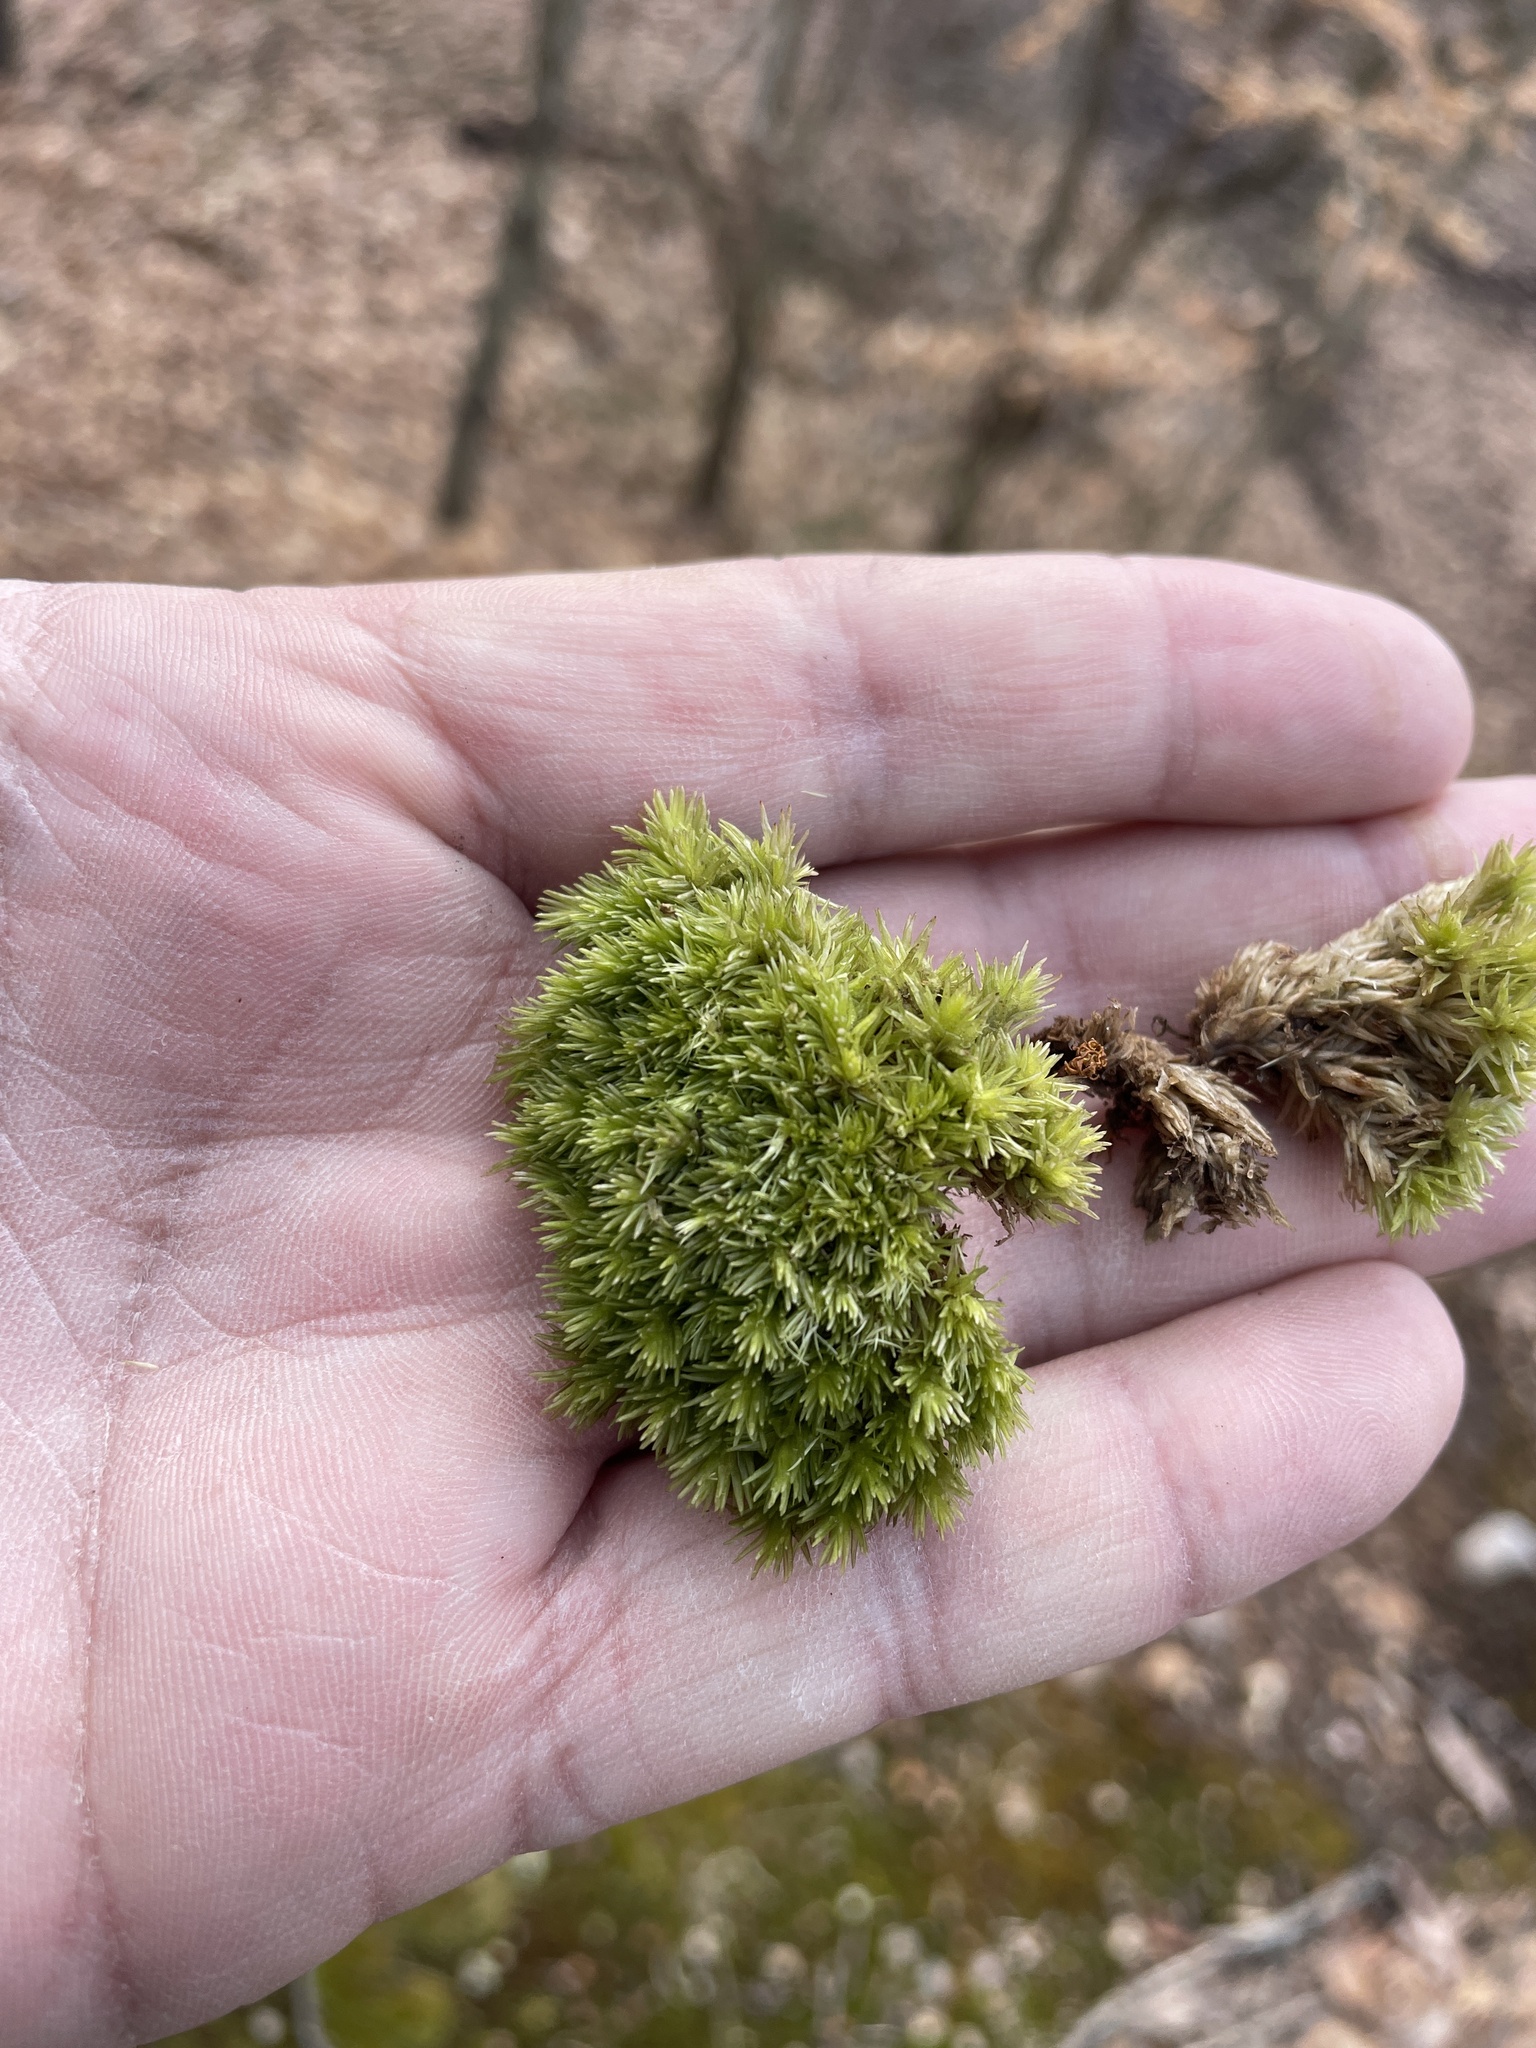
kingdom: Plantae
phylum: Bryophyta
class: Bryopsida
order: Dicranales
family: Leucobryaceae
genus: Leucobryum
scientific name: Leucobryum glaucum
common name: Large white-moss
